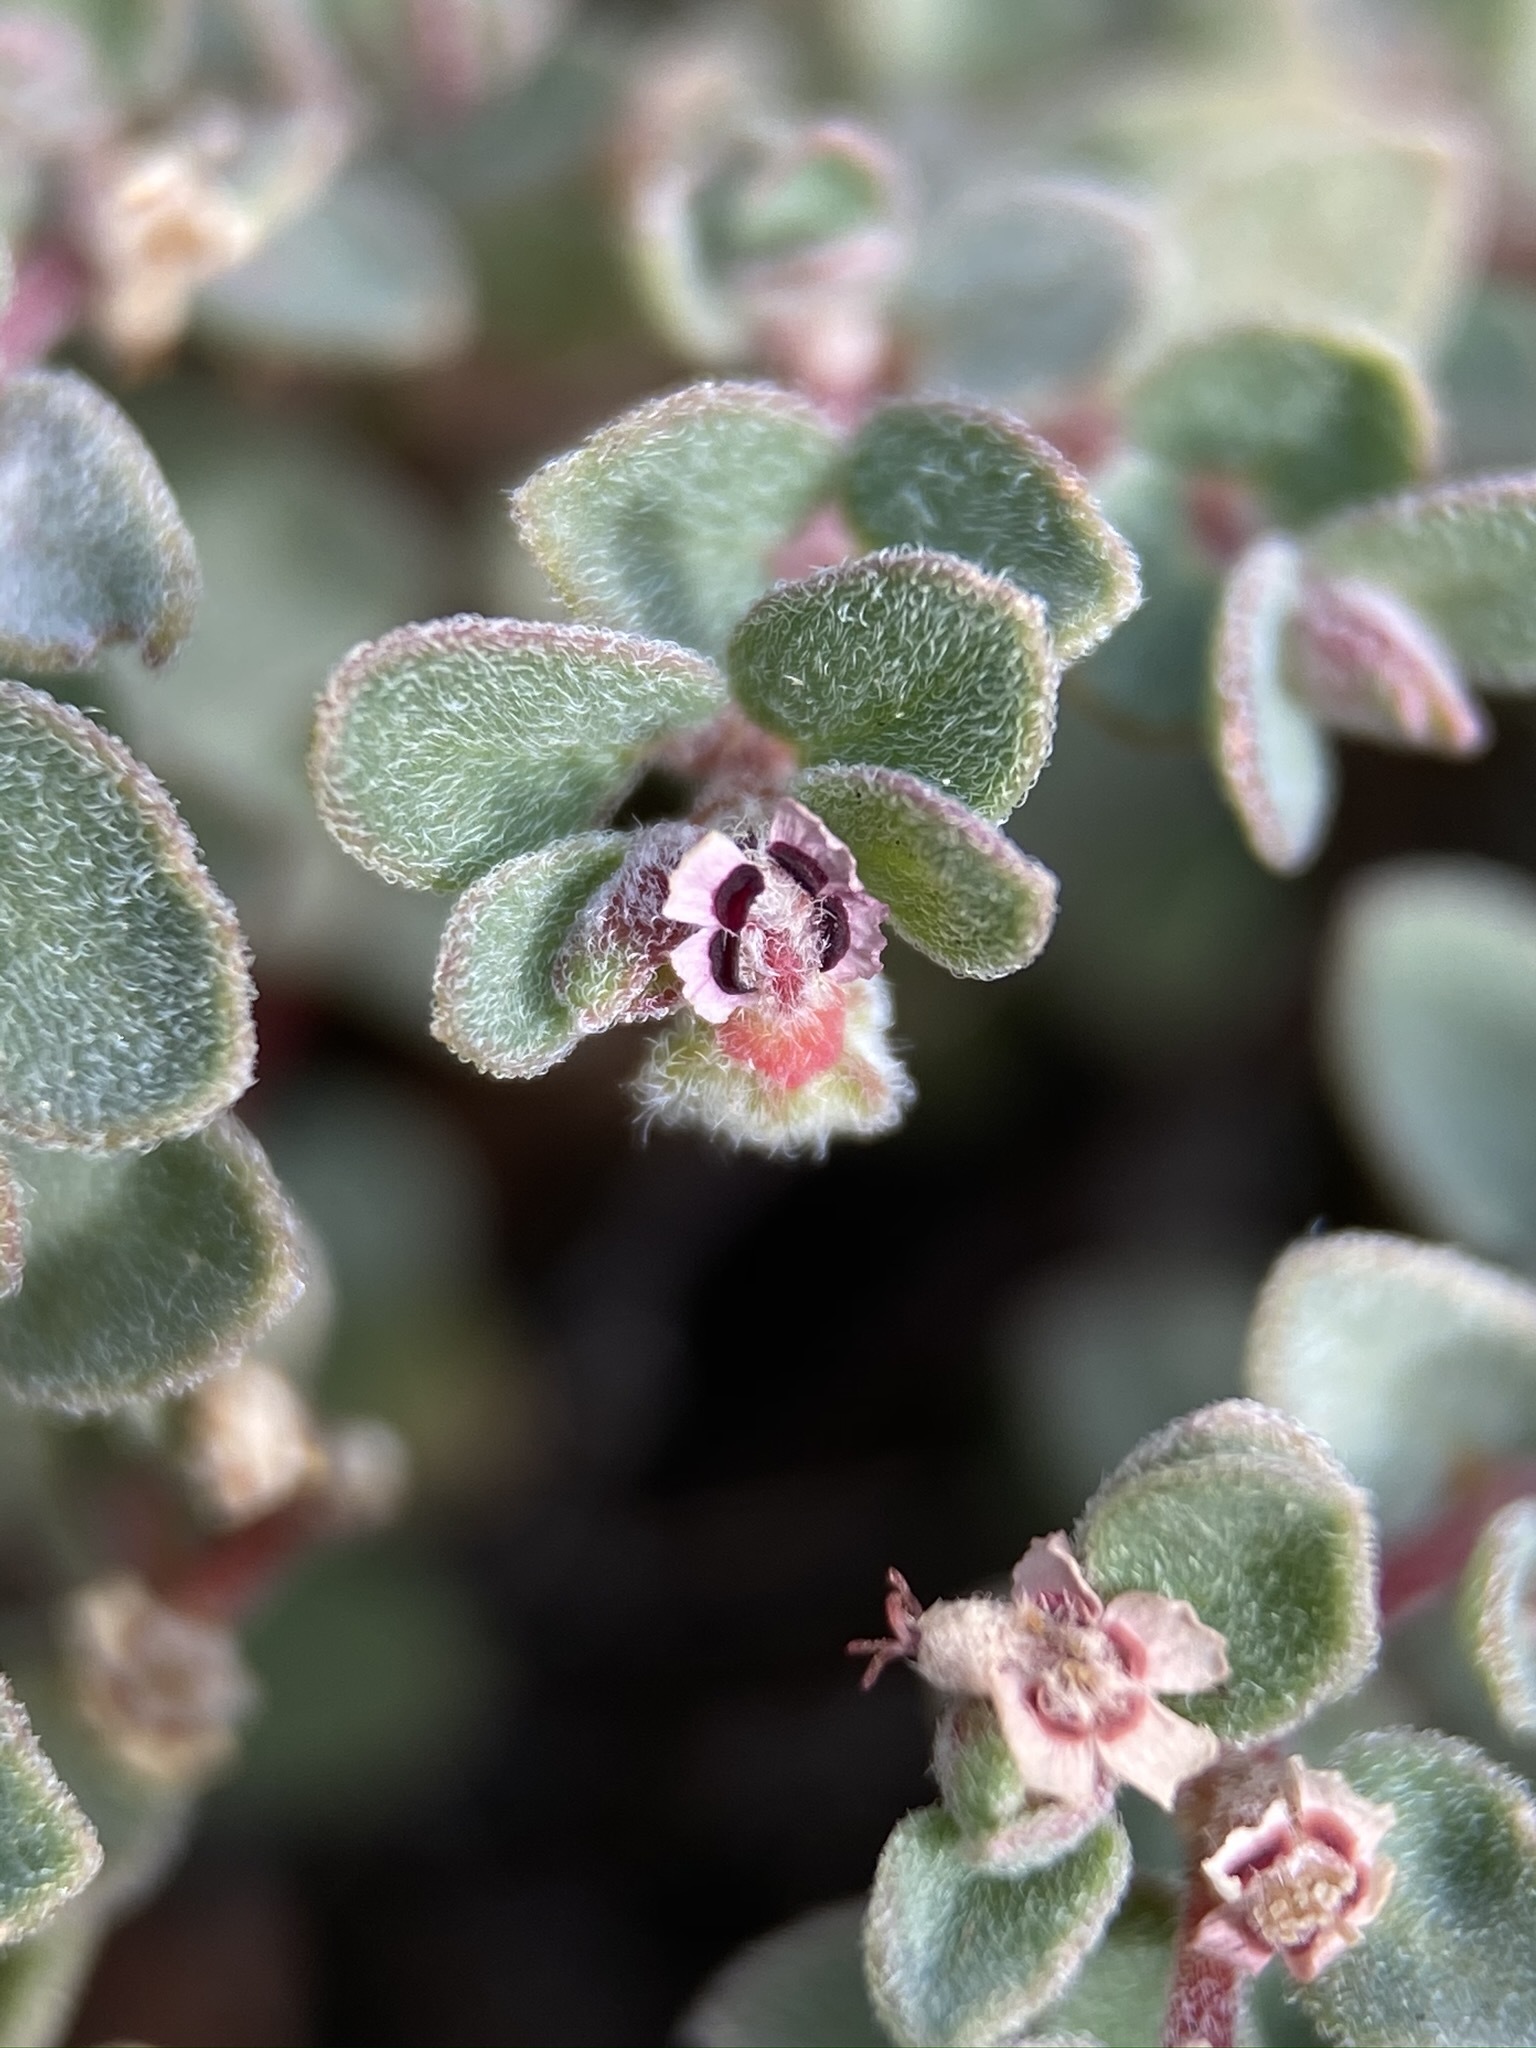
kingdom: Plantae
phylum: Tracheophyta
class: Magnoliopsida
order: Malpighiales
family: Euphorbiaceae
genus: Euphorbia
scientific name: Euphorbia melanadenia
